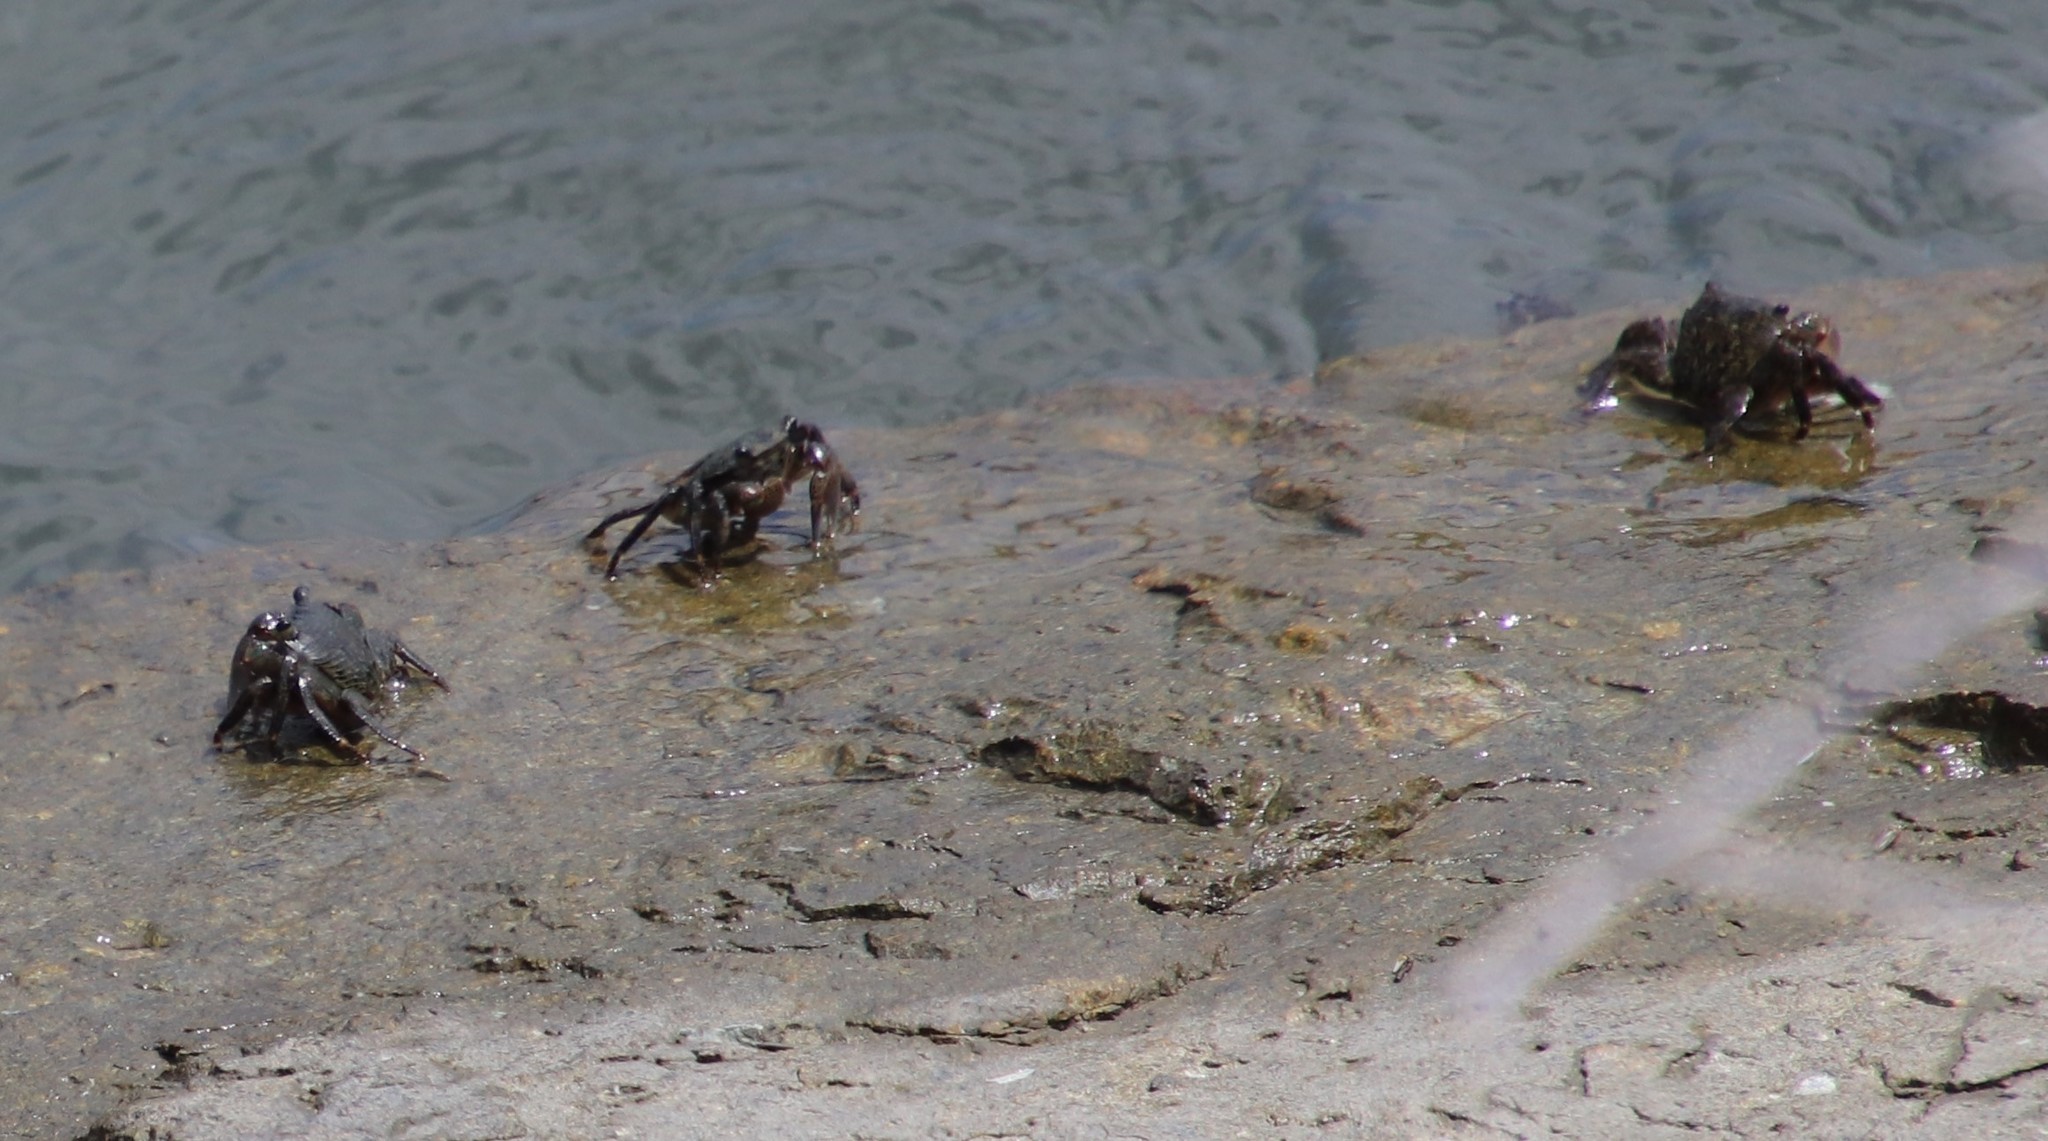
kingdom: Animalia
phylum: Arthropoda
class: Malacostraca
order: Decapoda
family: Grapsidae
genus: Pachygrapsus
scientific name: Pachygrapsus crassipes
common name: Striped shore crab
